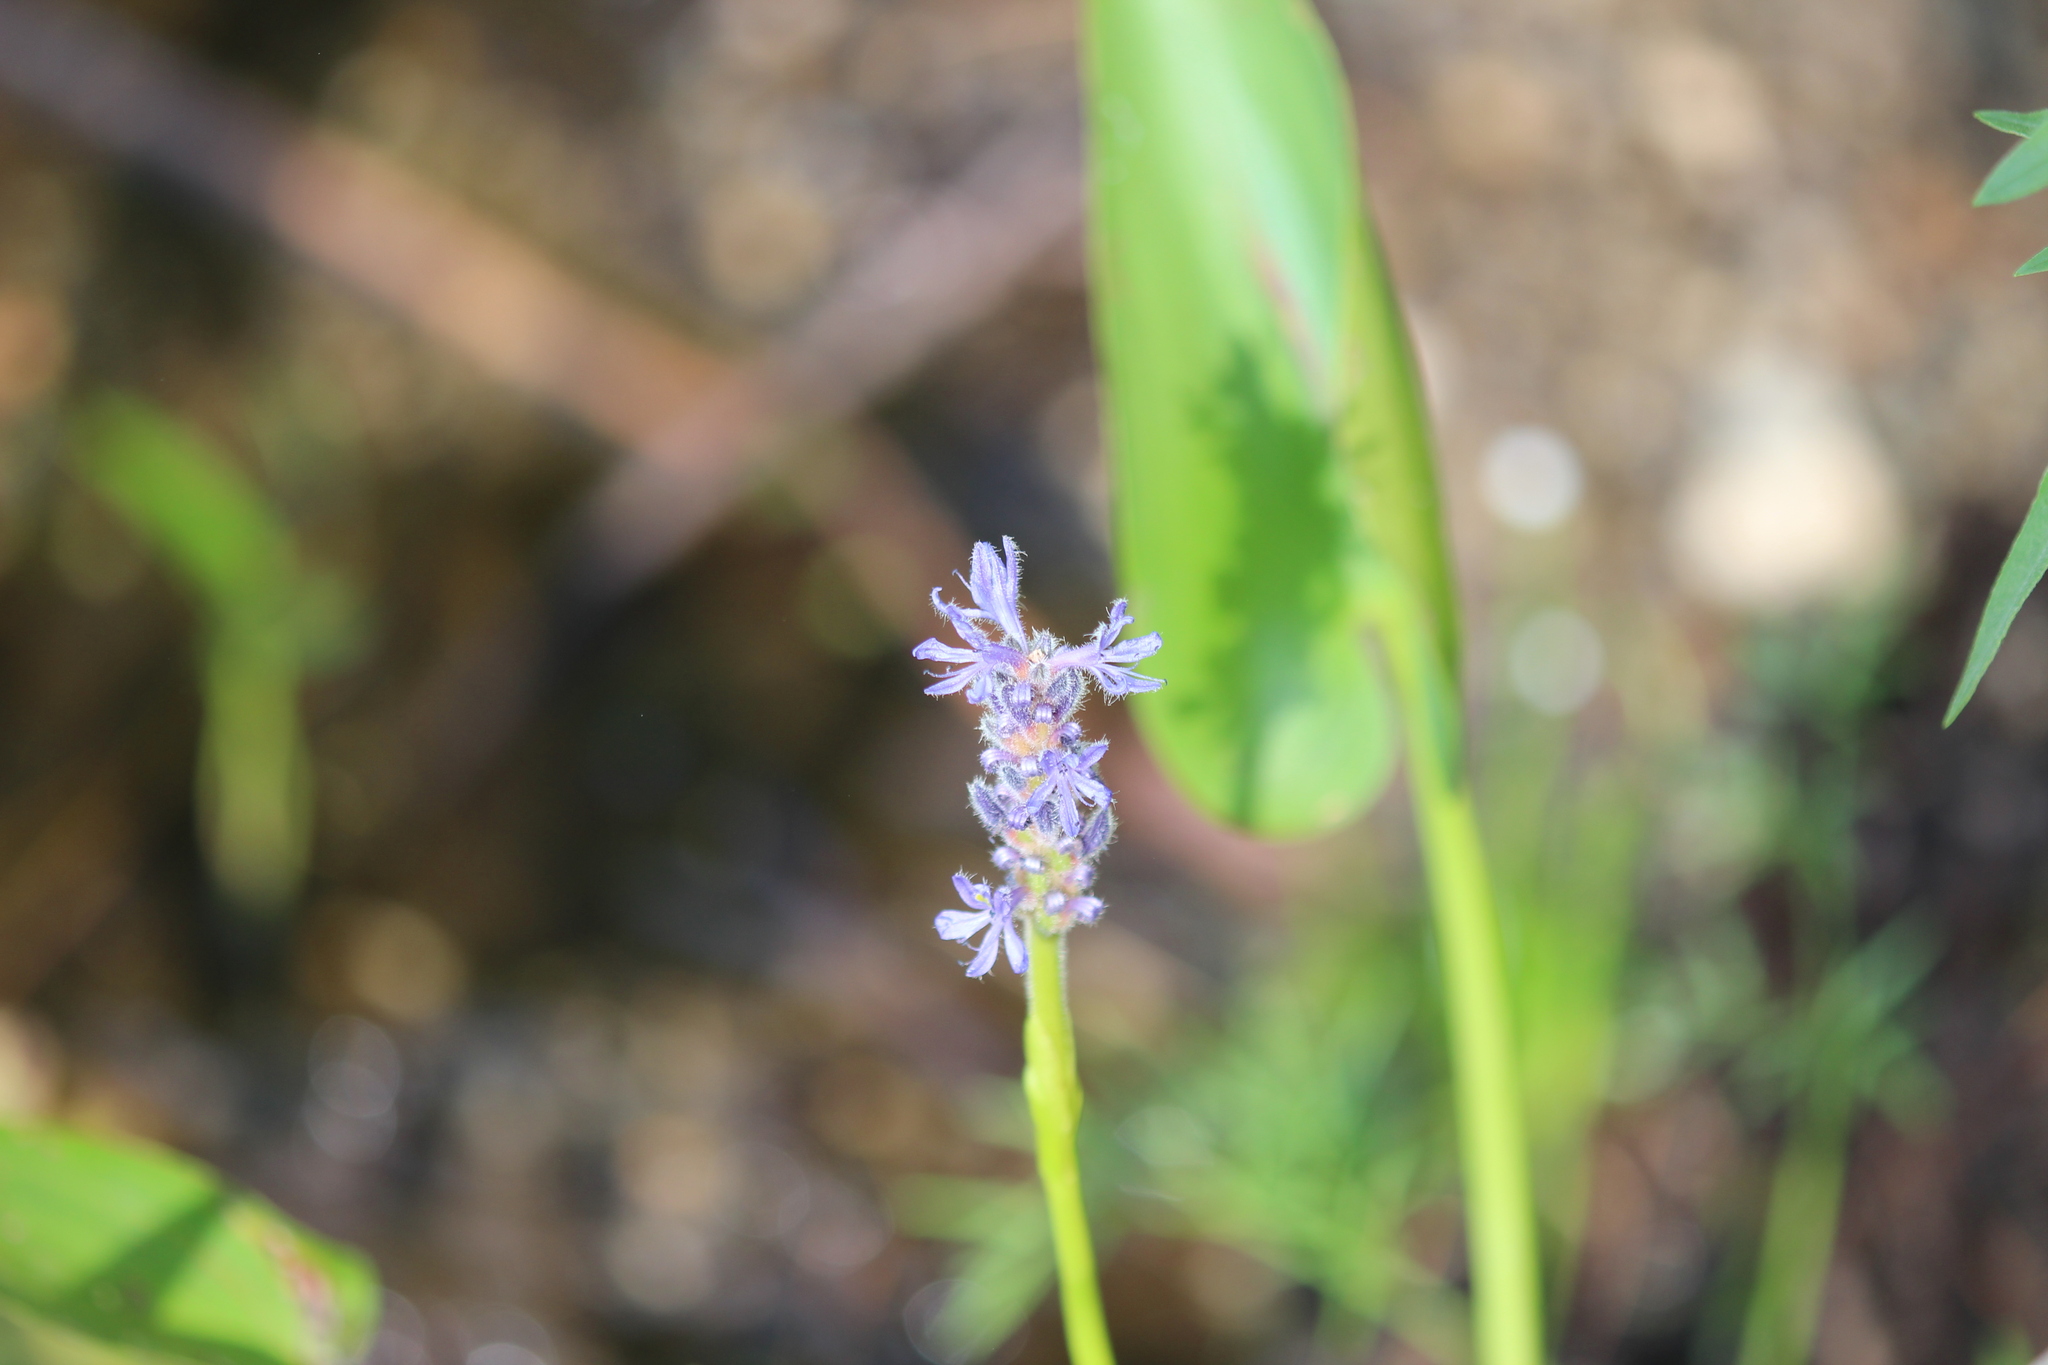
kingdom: Plantae
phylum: Tracheophyta
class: Liliopsida
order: Commelinales
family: Pontederiaceae
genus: Pontederia
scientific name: Pontederia cordata
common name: Pickerelweed
